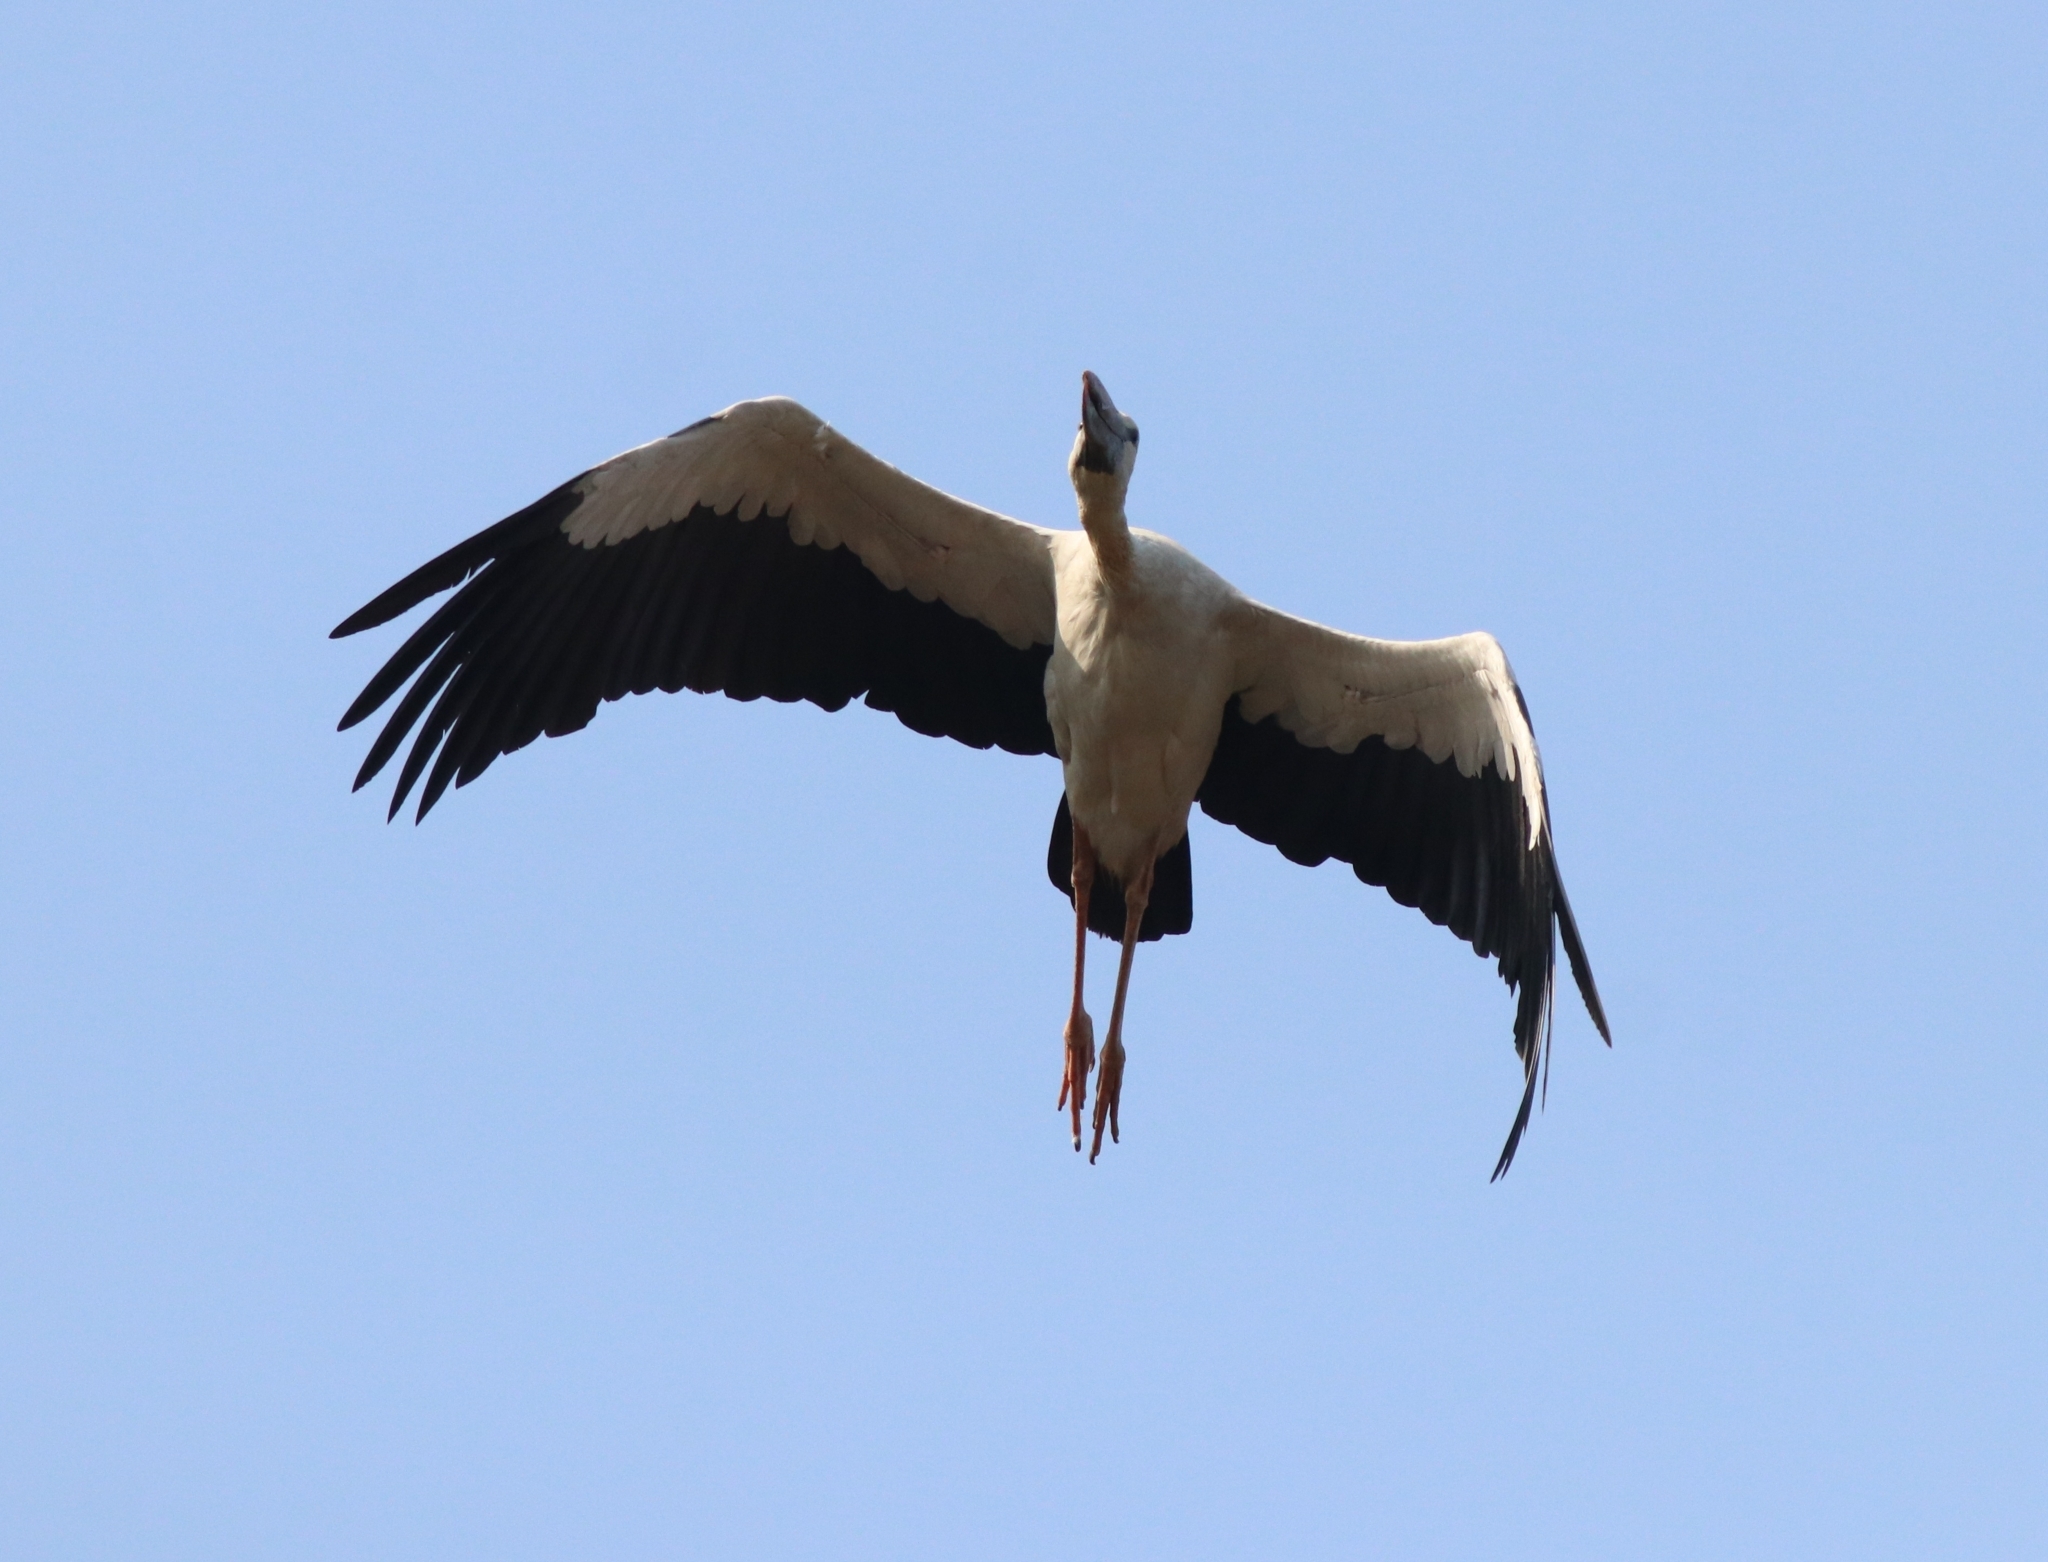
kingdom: Animalia
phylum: Chordata
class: Aves
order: Ciconiiformes
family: Ciconiidae
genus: Anastomus
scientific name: Anastomus oscitans
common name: Asian openbill
